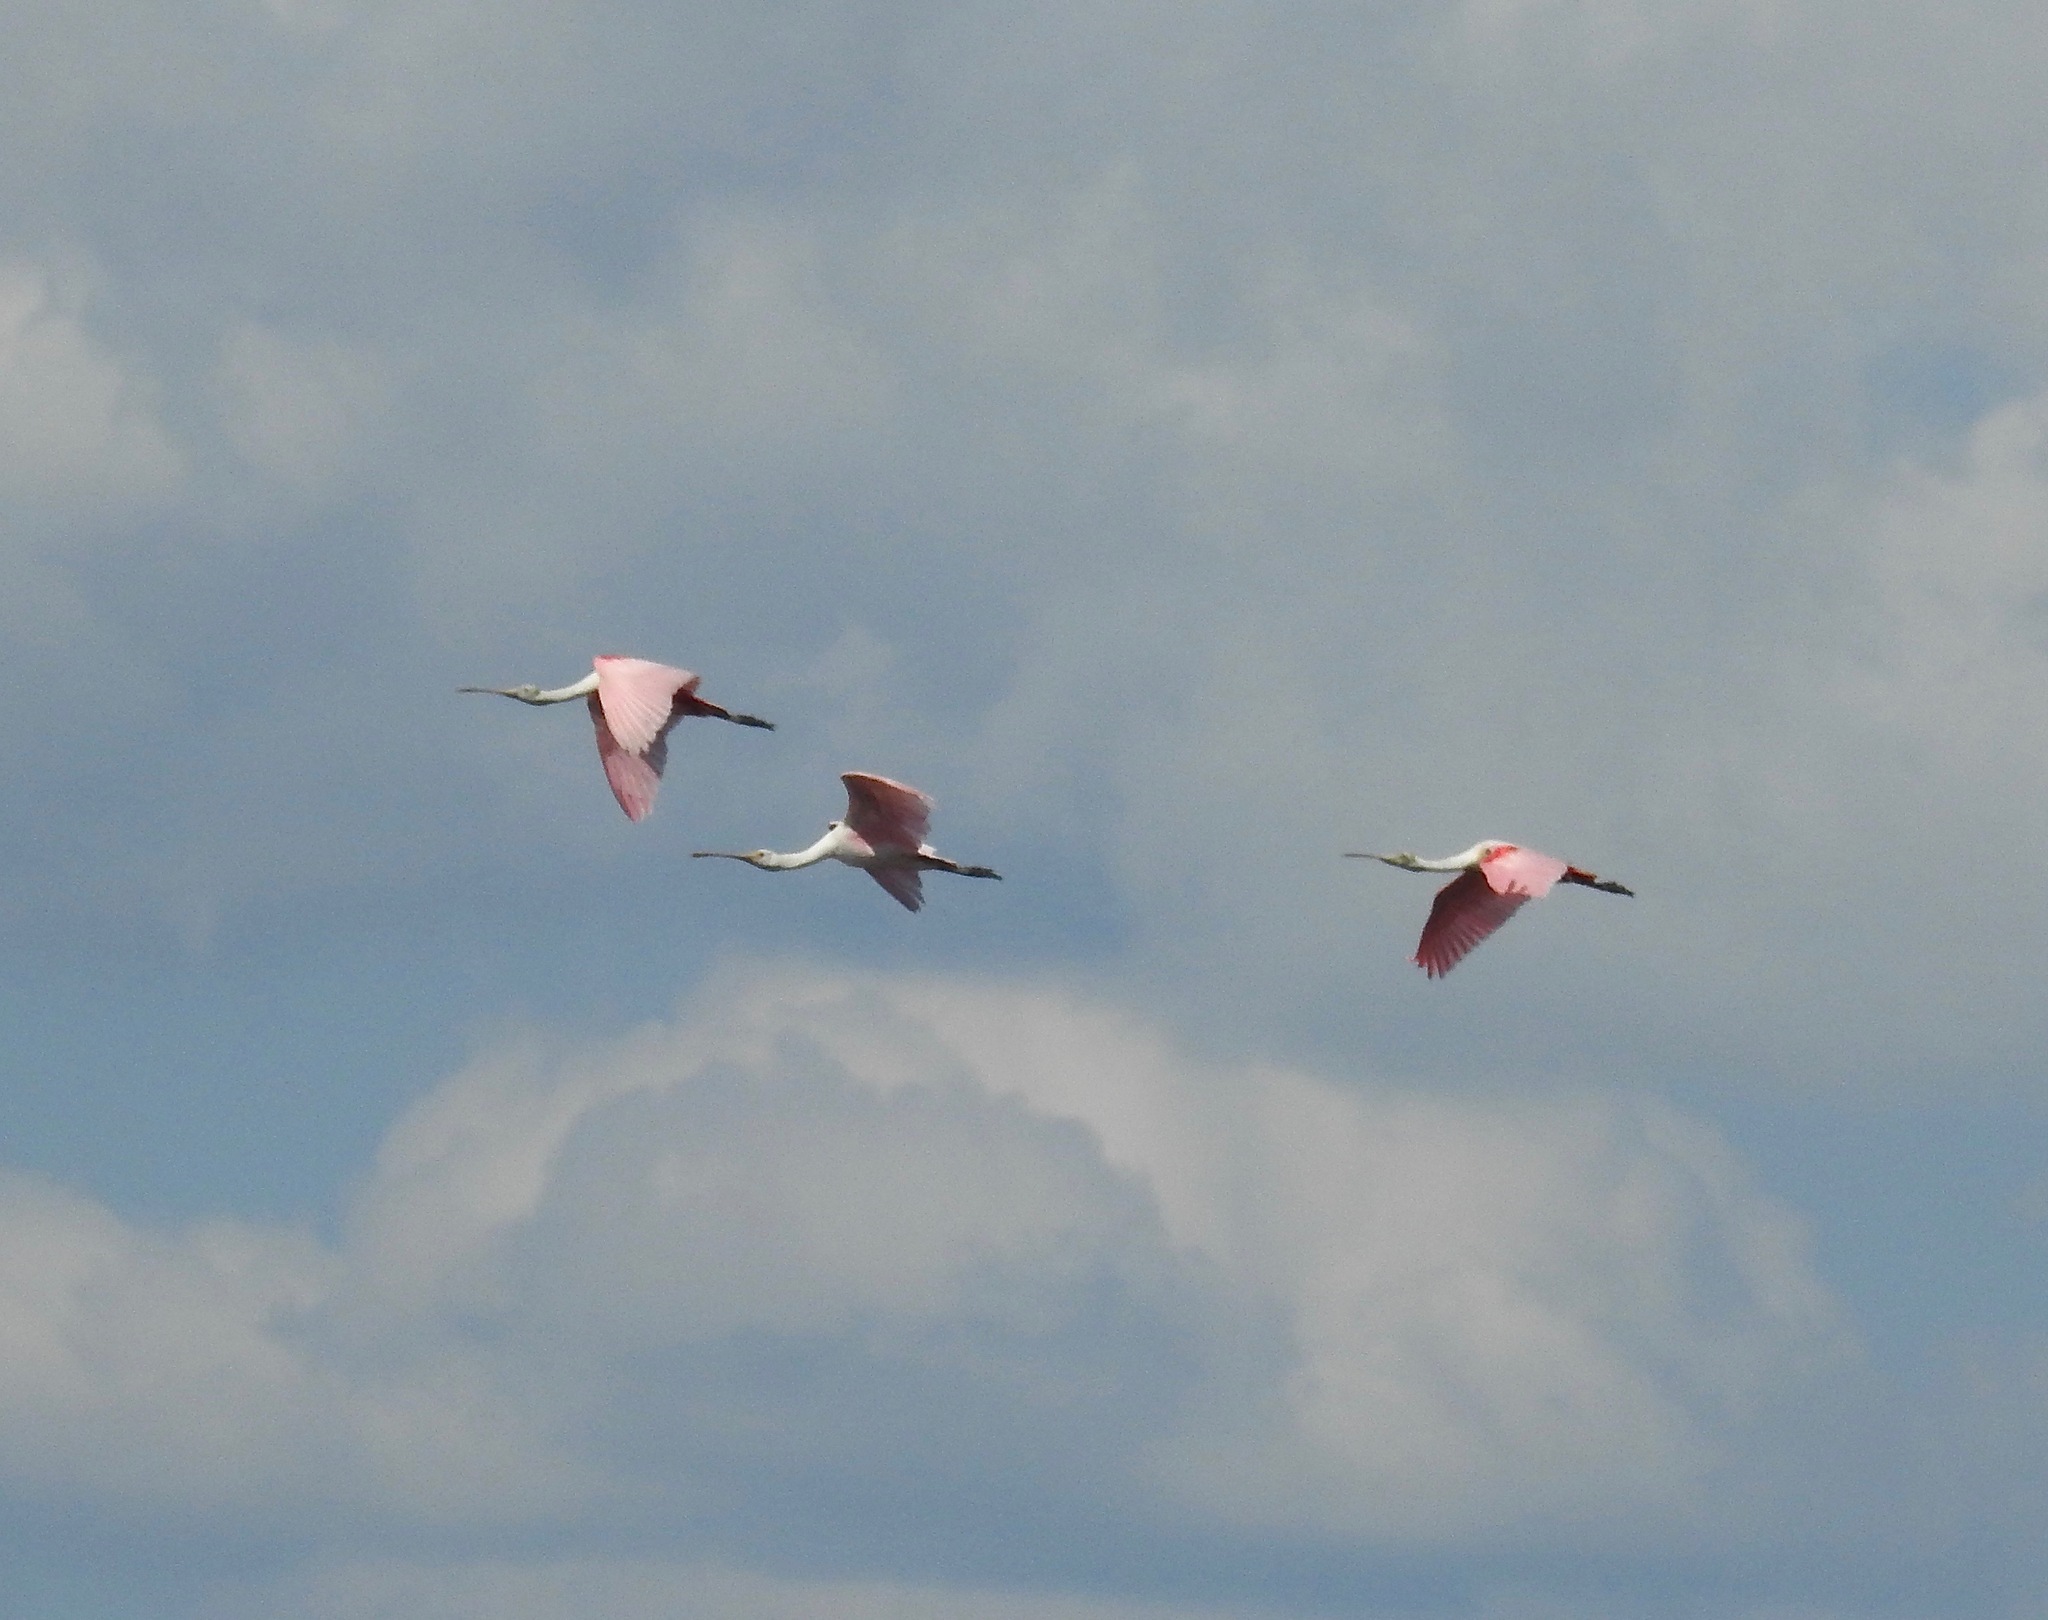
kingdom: Animalia
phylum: Chordata
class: Aves
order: Pelecaniformes
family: Threskiornithidae
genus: Platalea
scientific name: Platalea ajaja
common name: Roseate spoonbill
